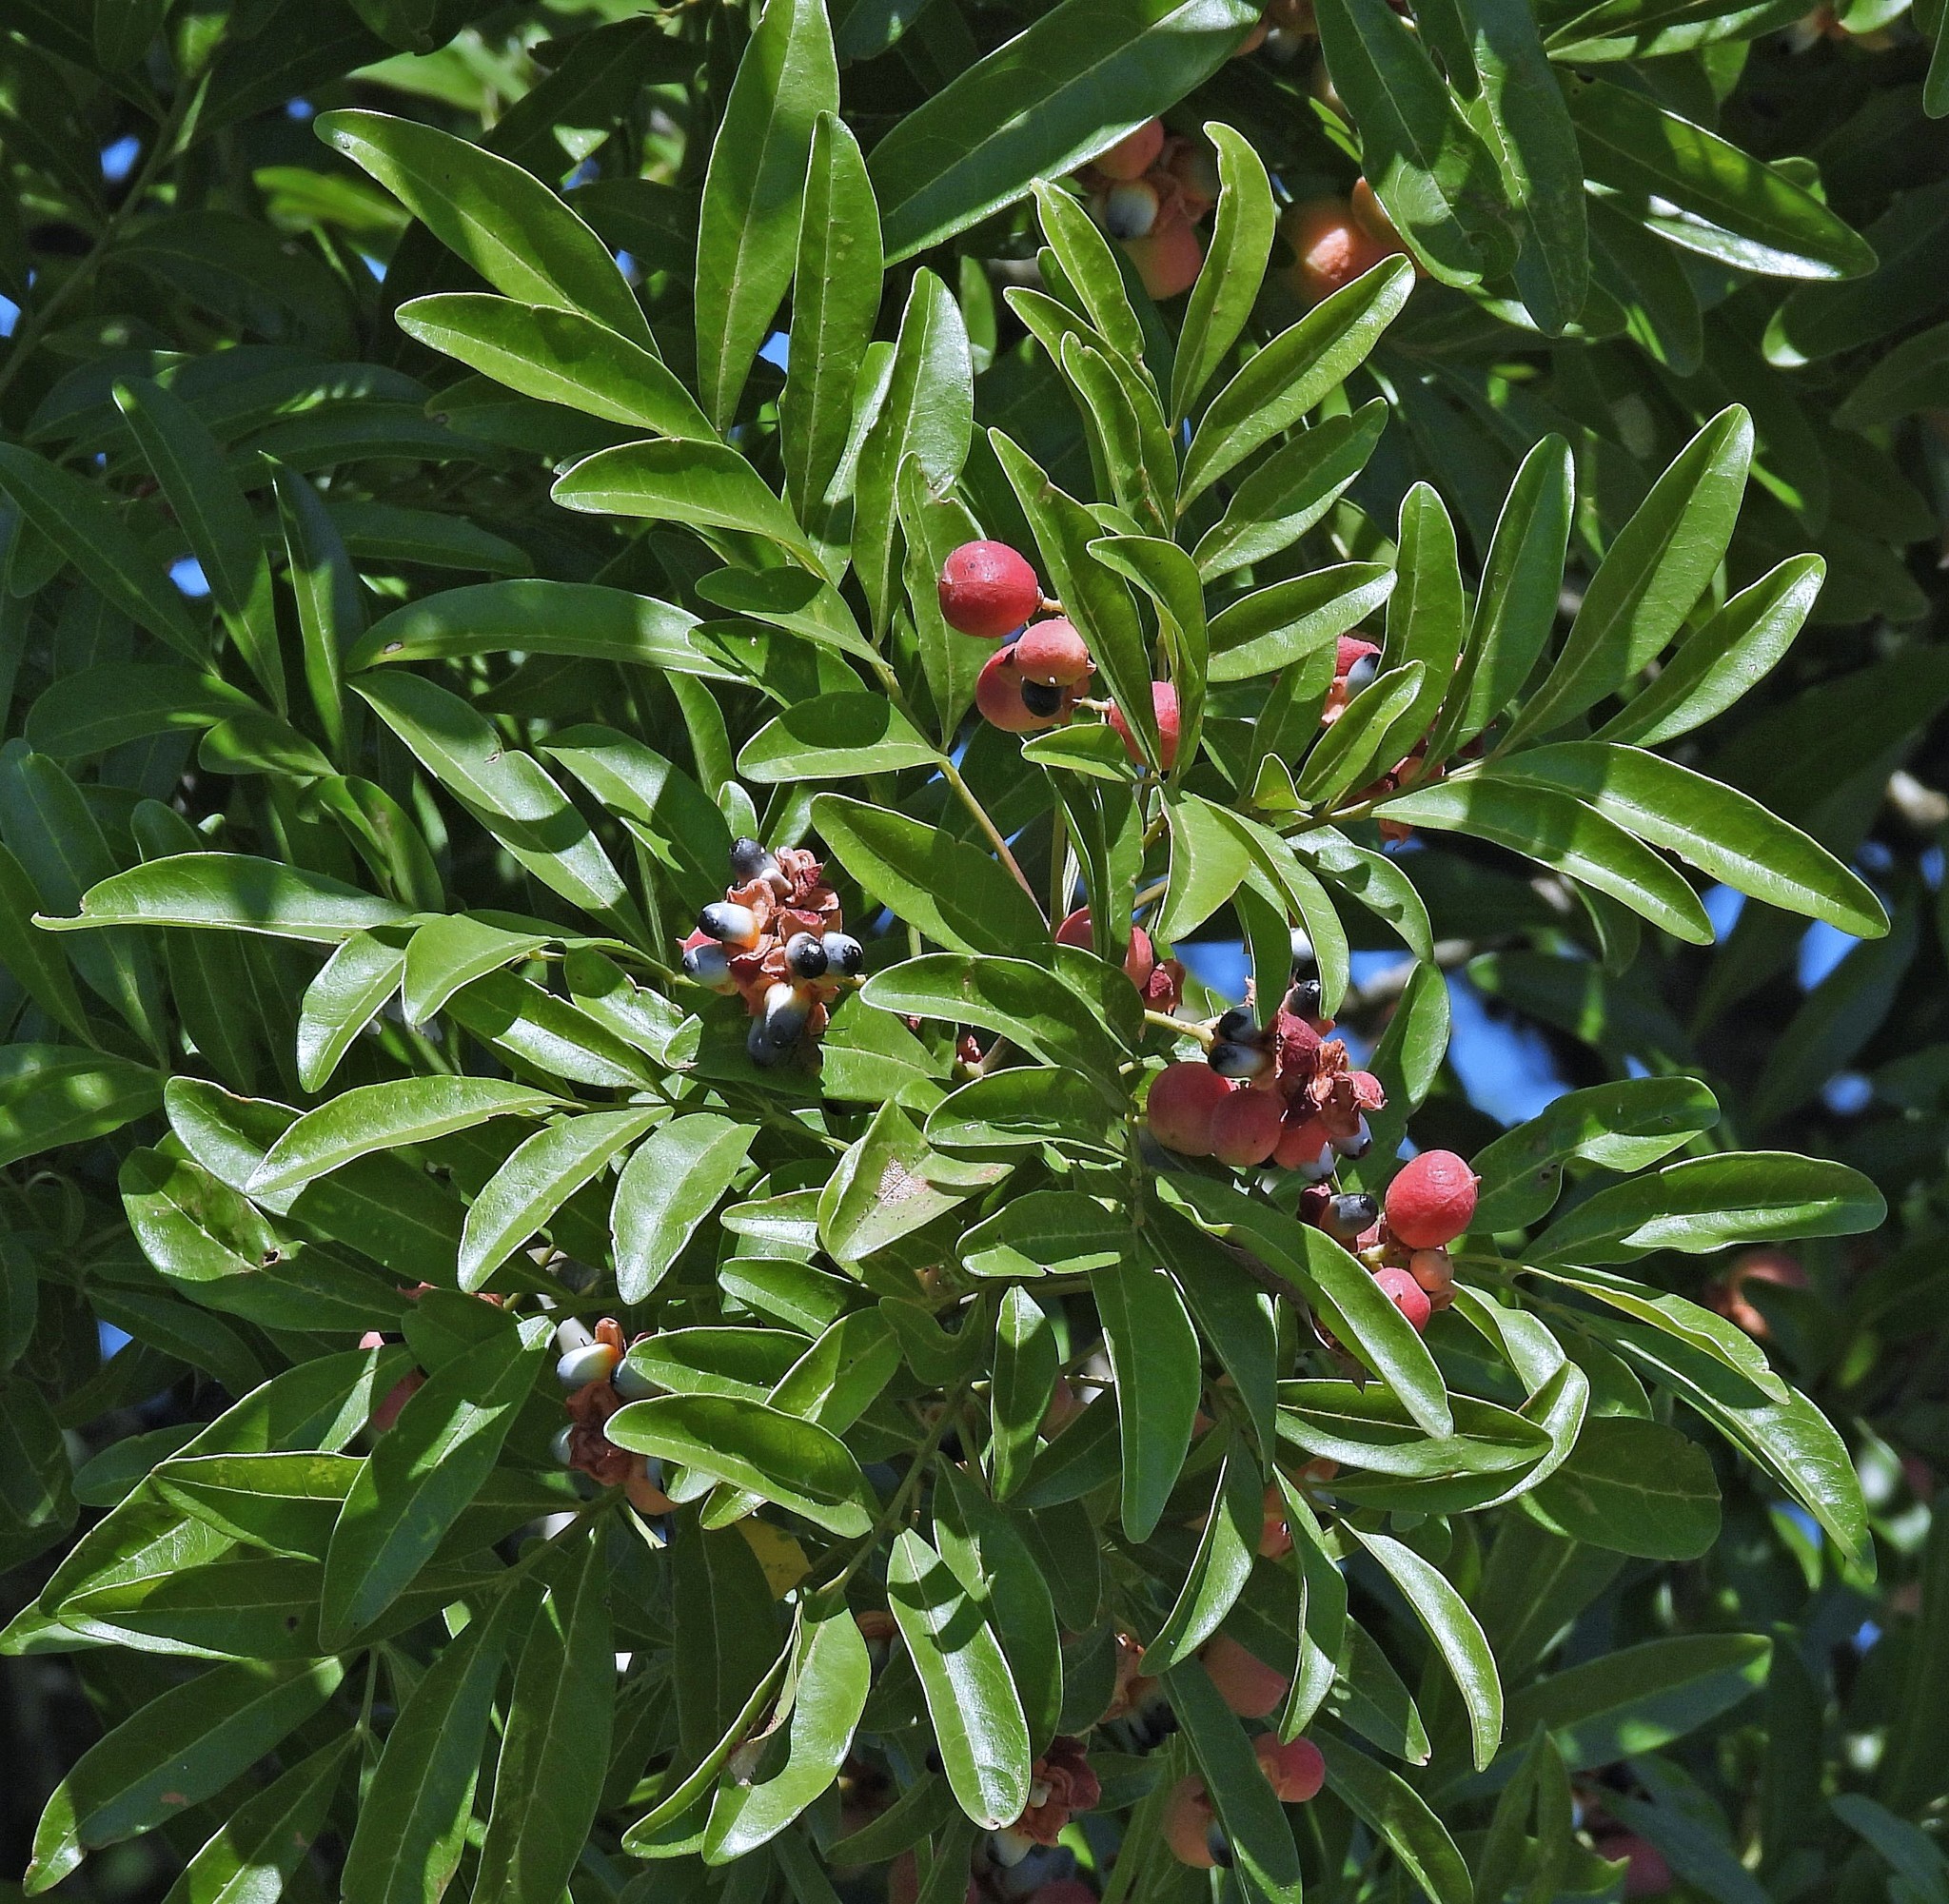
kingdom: Plantae
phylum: Tracheophyta
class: Magnoliopsida
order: Sapindales
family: Sapindaceae
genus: Matayba
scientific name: Matayba elaeagnoides
